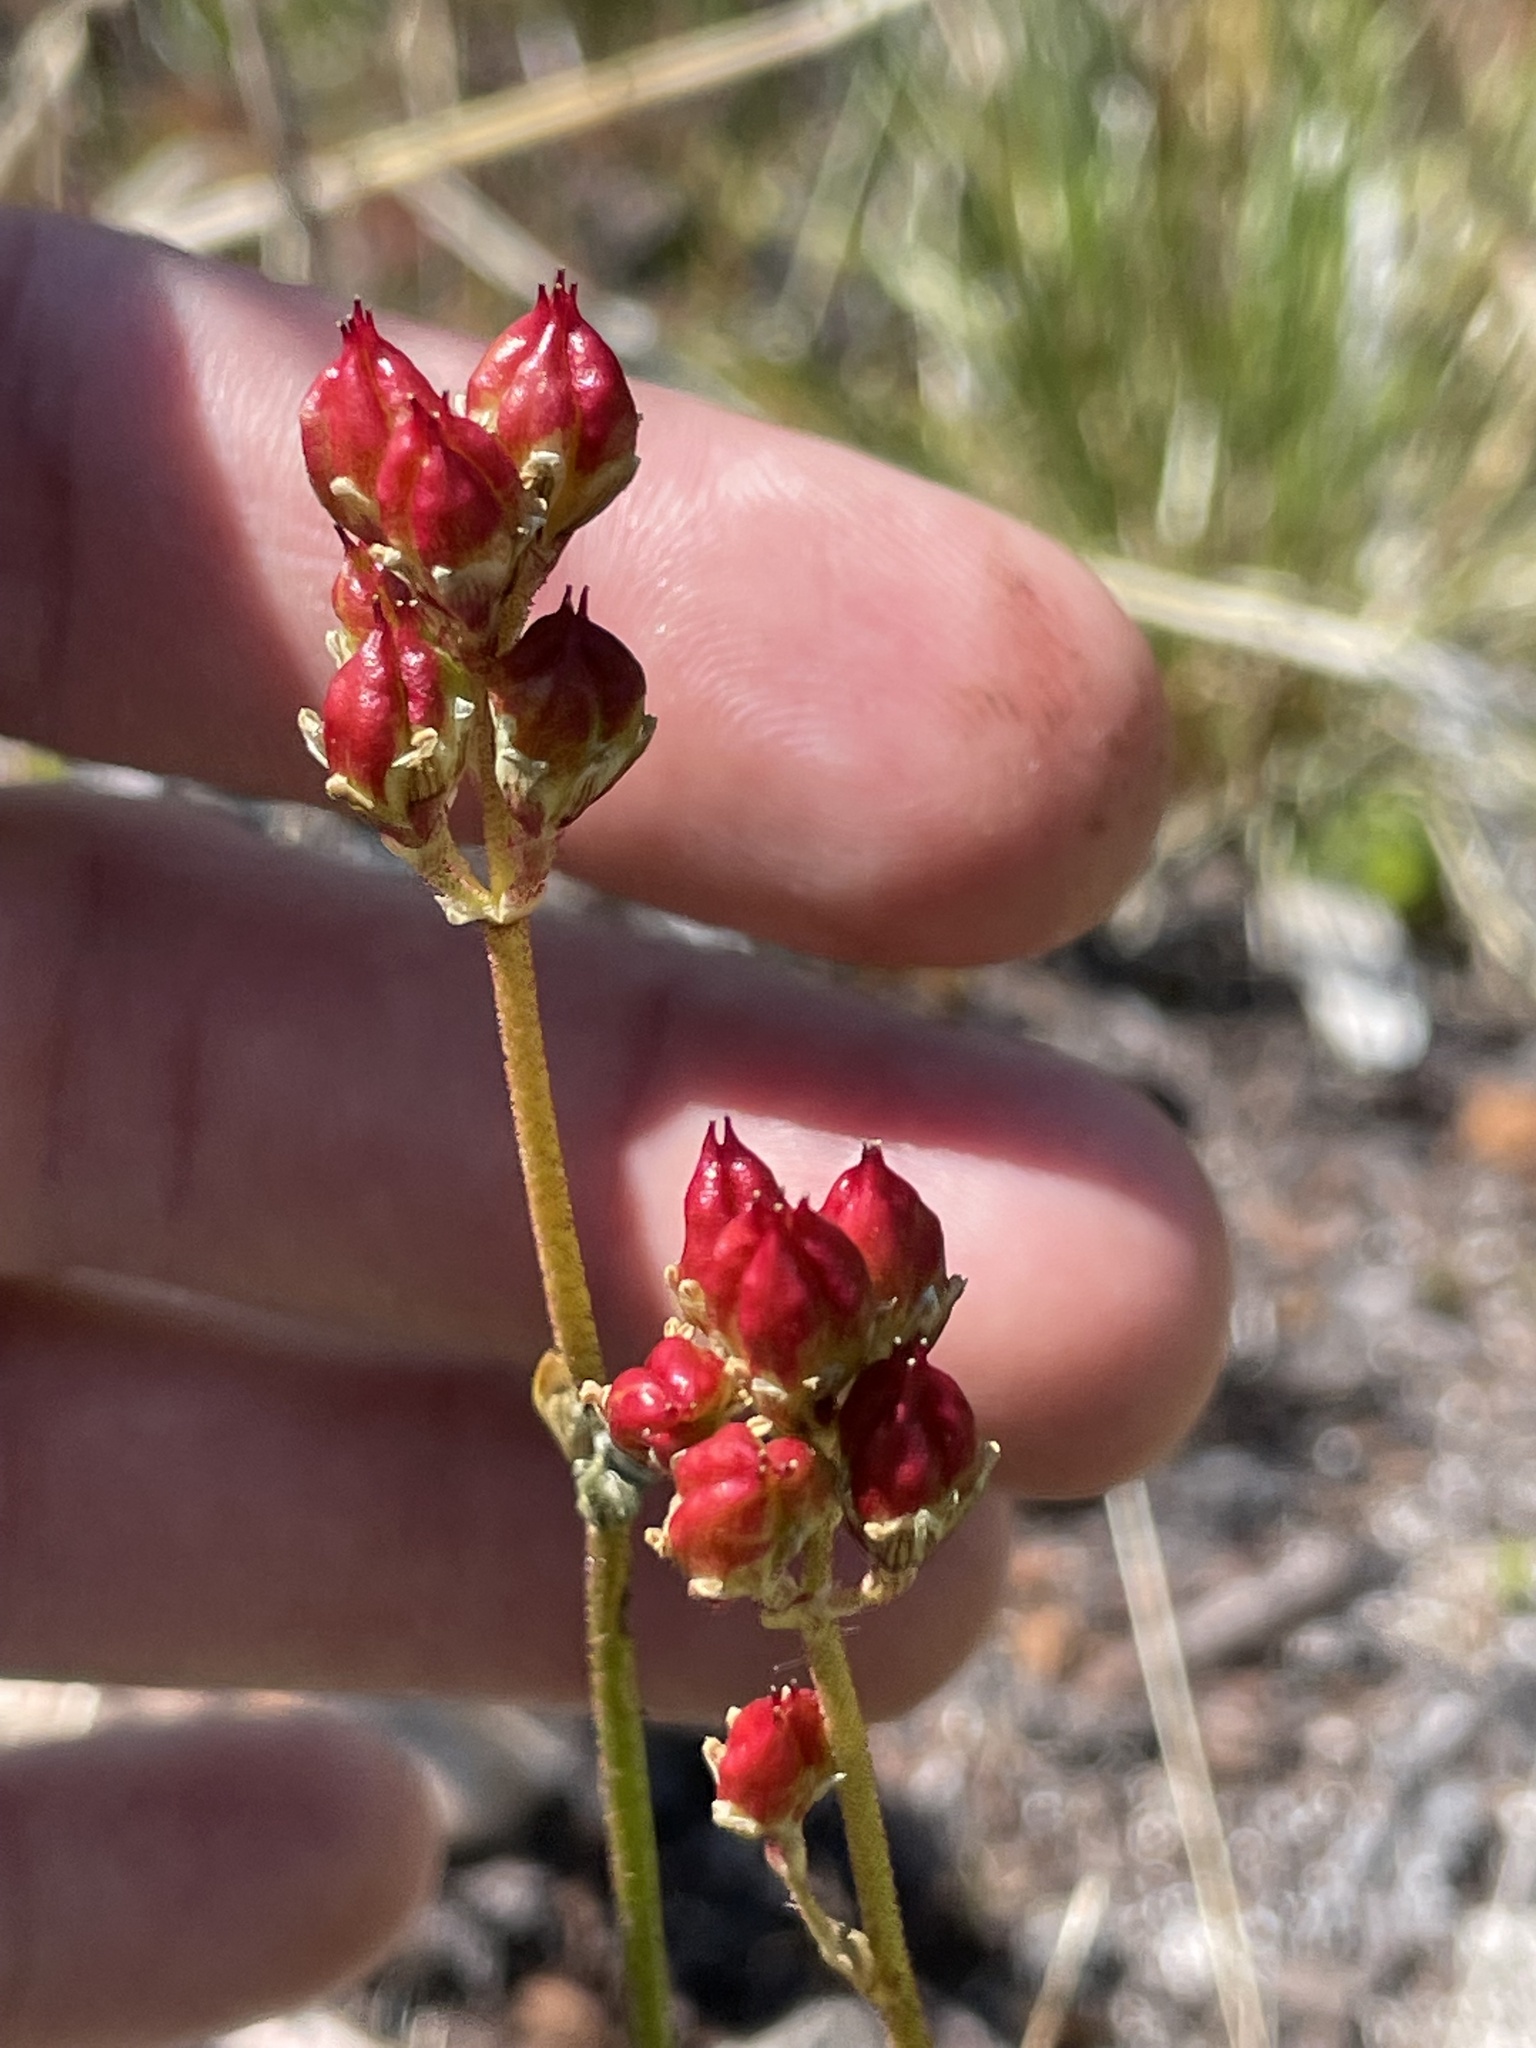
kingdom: Plantae
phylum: Tracheophyta
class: Liliopsida
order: Alismatales
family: Tofieldiaceae
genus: Triantha
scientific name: Triantha occidentalis
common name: Western false asphodel
